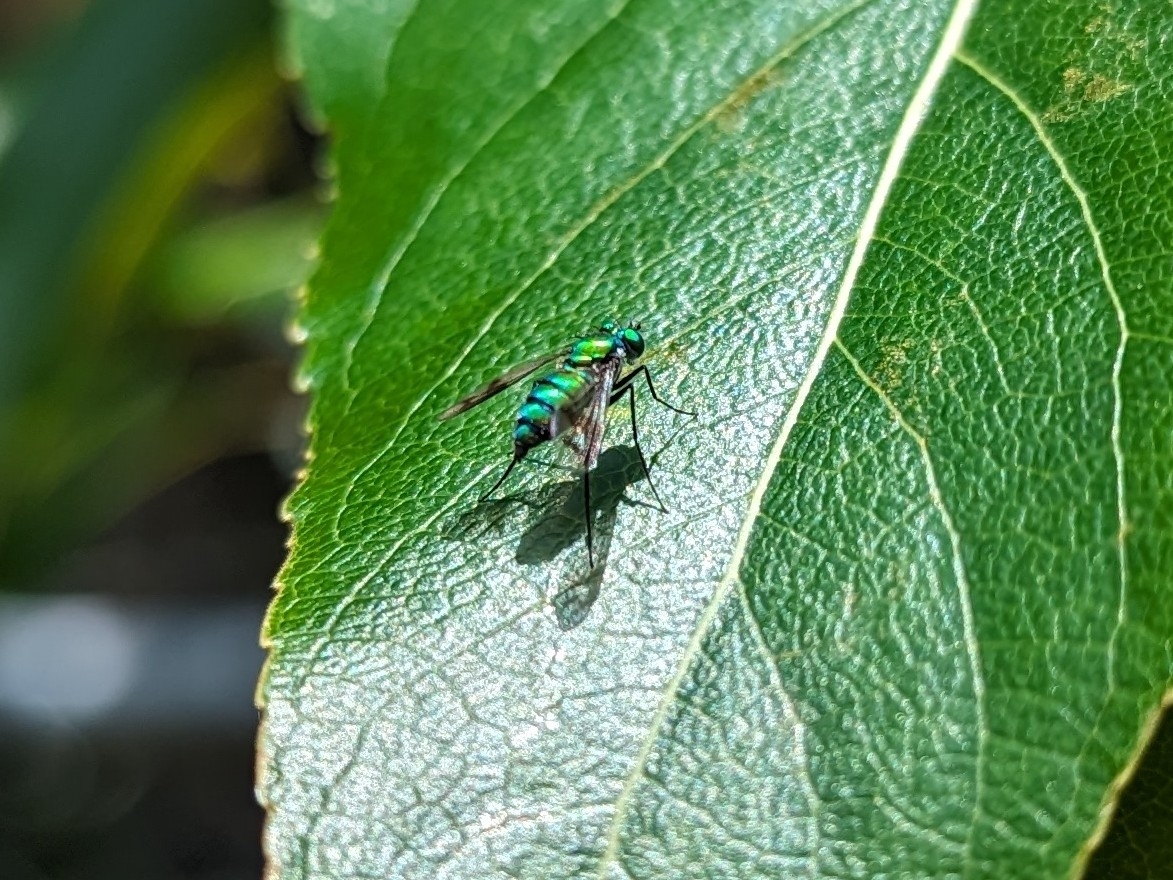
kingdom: Animalia
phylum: Arthropoda
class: Insecta
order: Diptera
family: Dolichopodidae
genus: Condylostylus
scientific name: Condylostylus occidentalis
